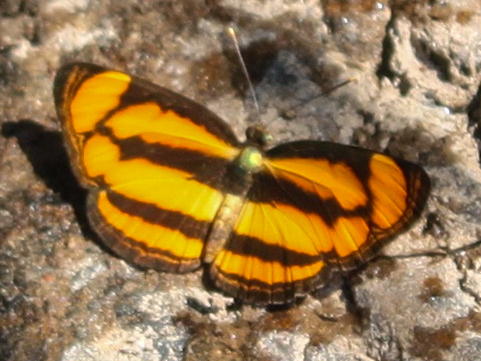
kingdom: Animalia
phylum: Arthropoda
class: Insecta
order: Lepidoptera
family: Nymphalidae
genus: Pantoporia
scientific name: Pantoporia paraka
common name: Perak lascar
